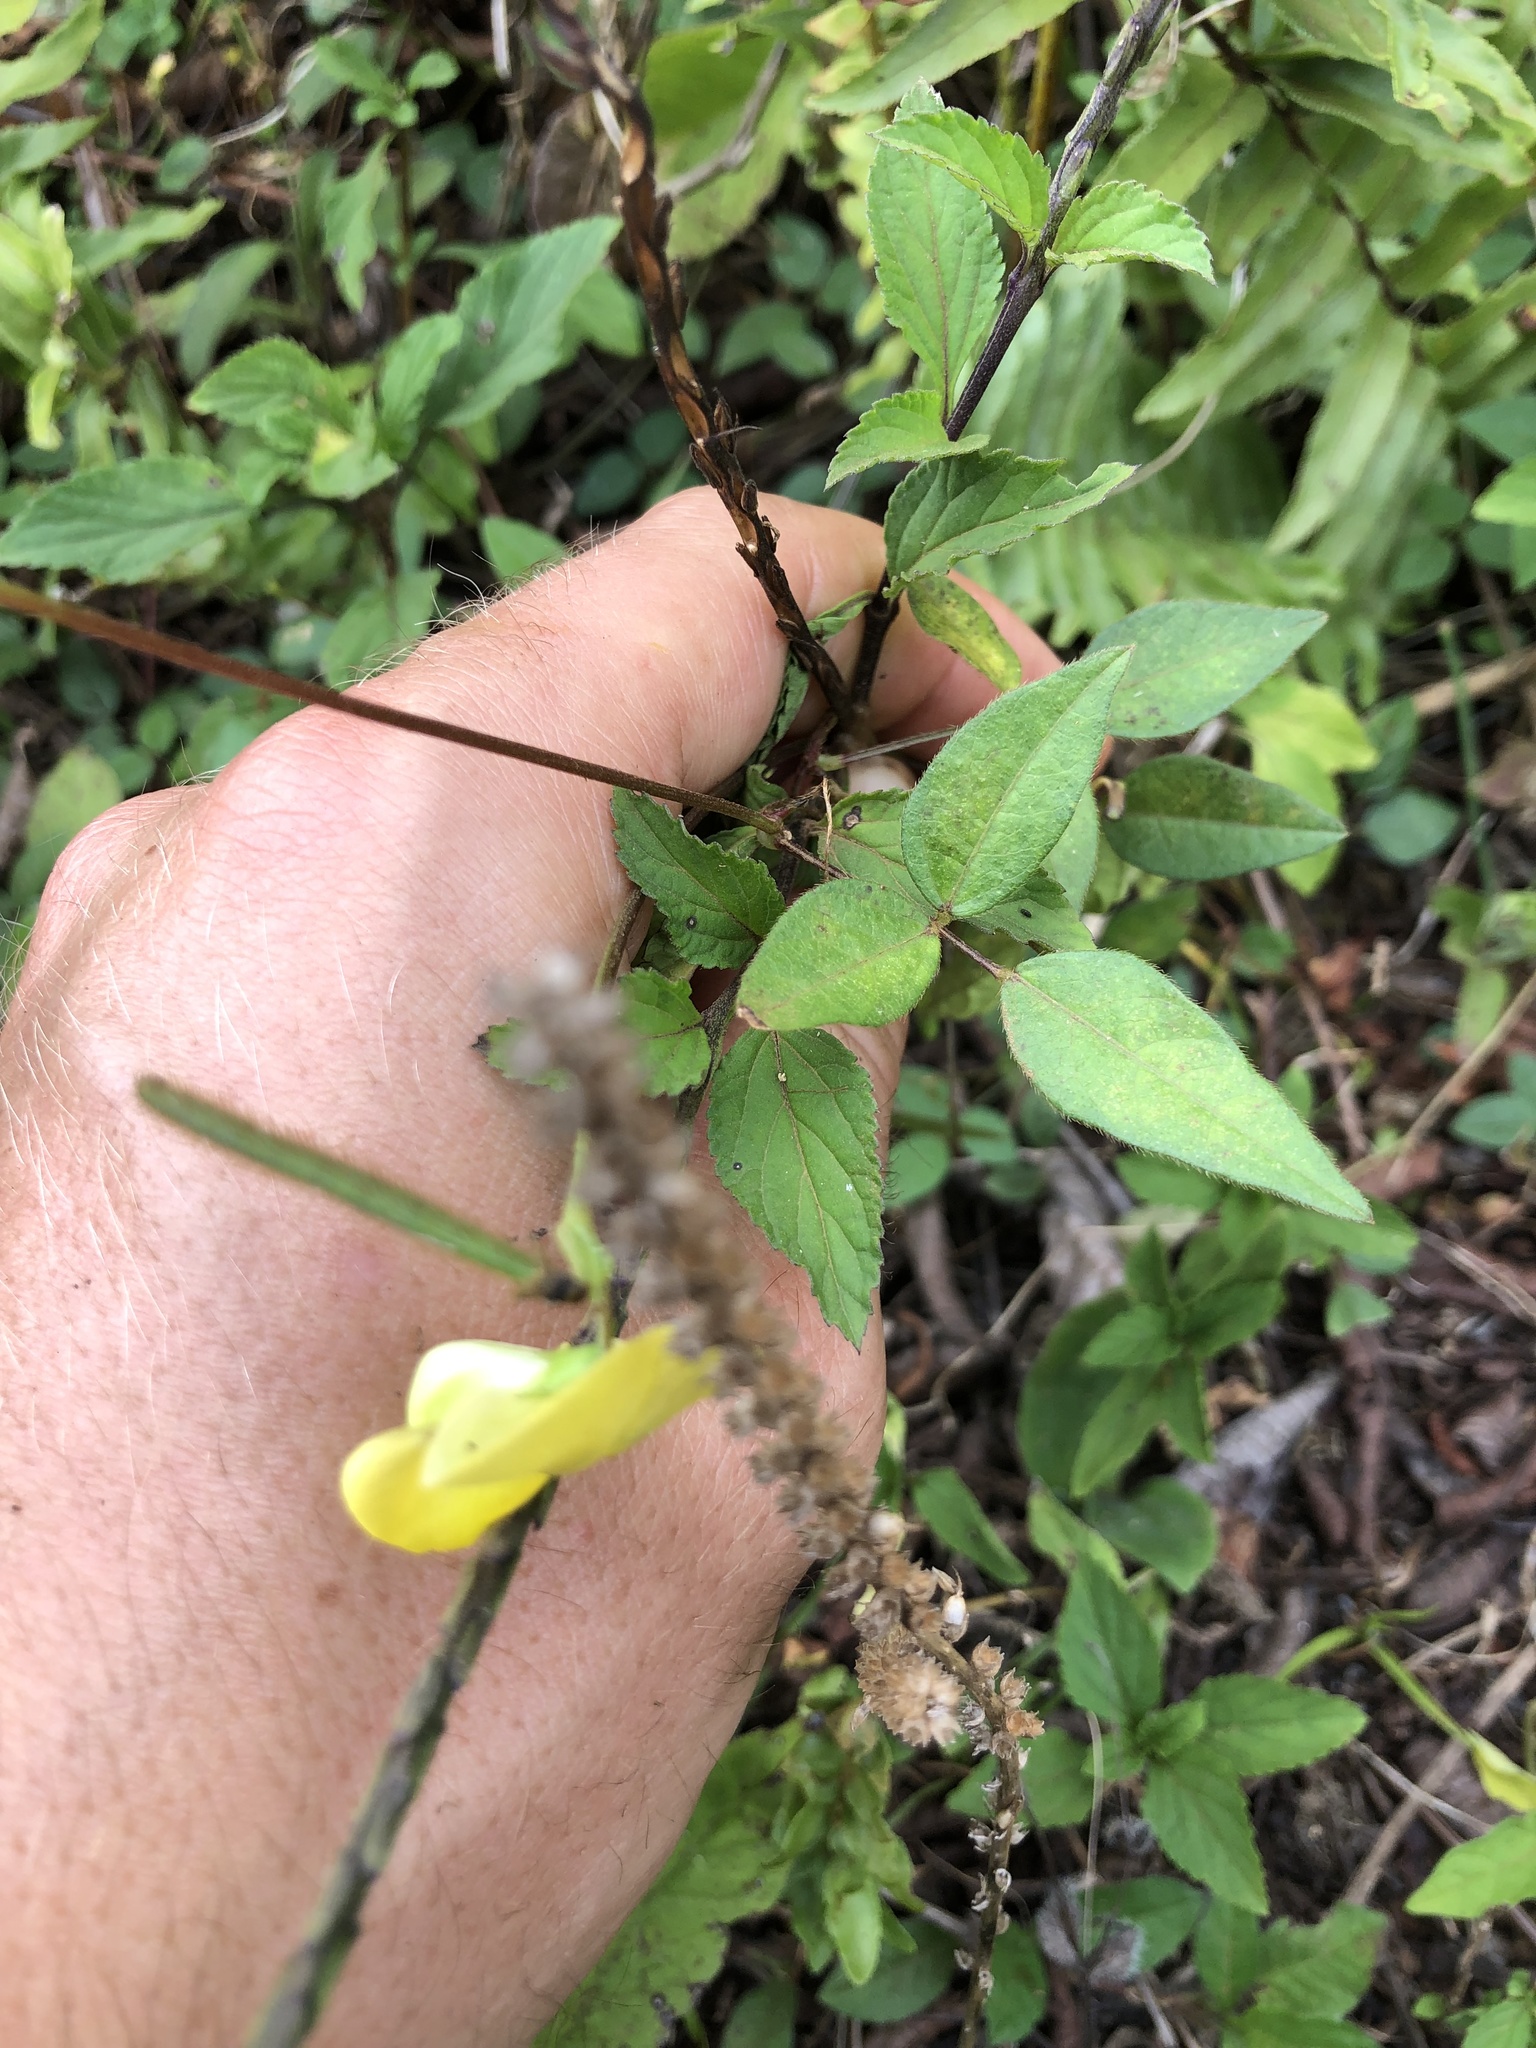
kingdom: Plantae
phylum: Tracheophyta
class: Magnoliopsida
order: Fabales
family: Fabaceae
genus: Vigna
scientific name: Vigna luteola
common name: Hairypod cowpea
